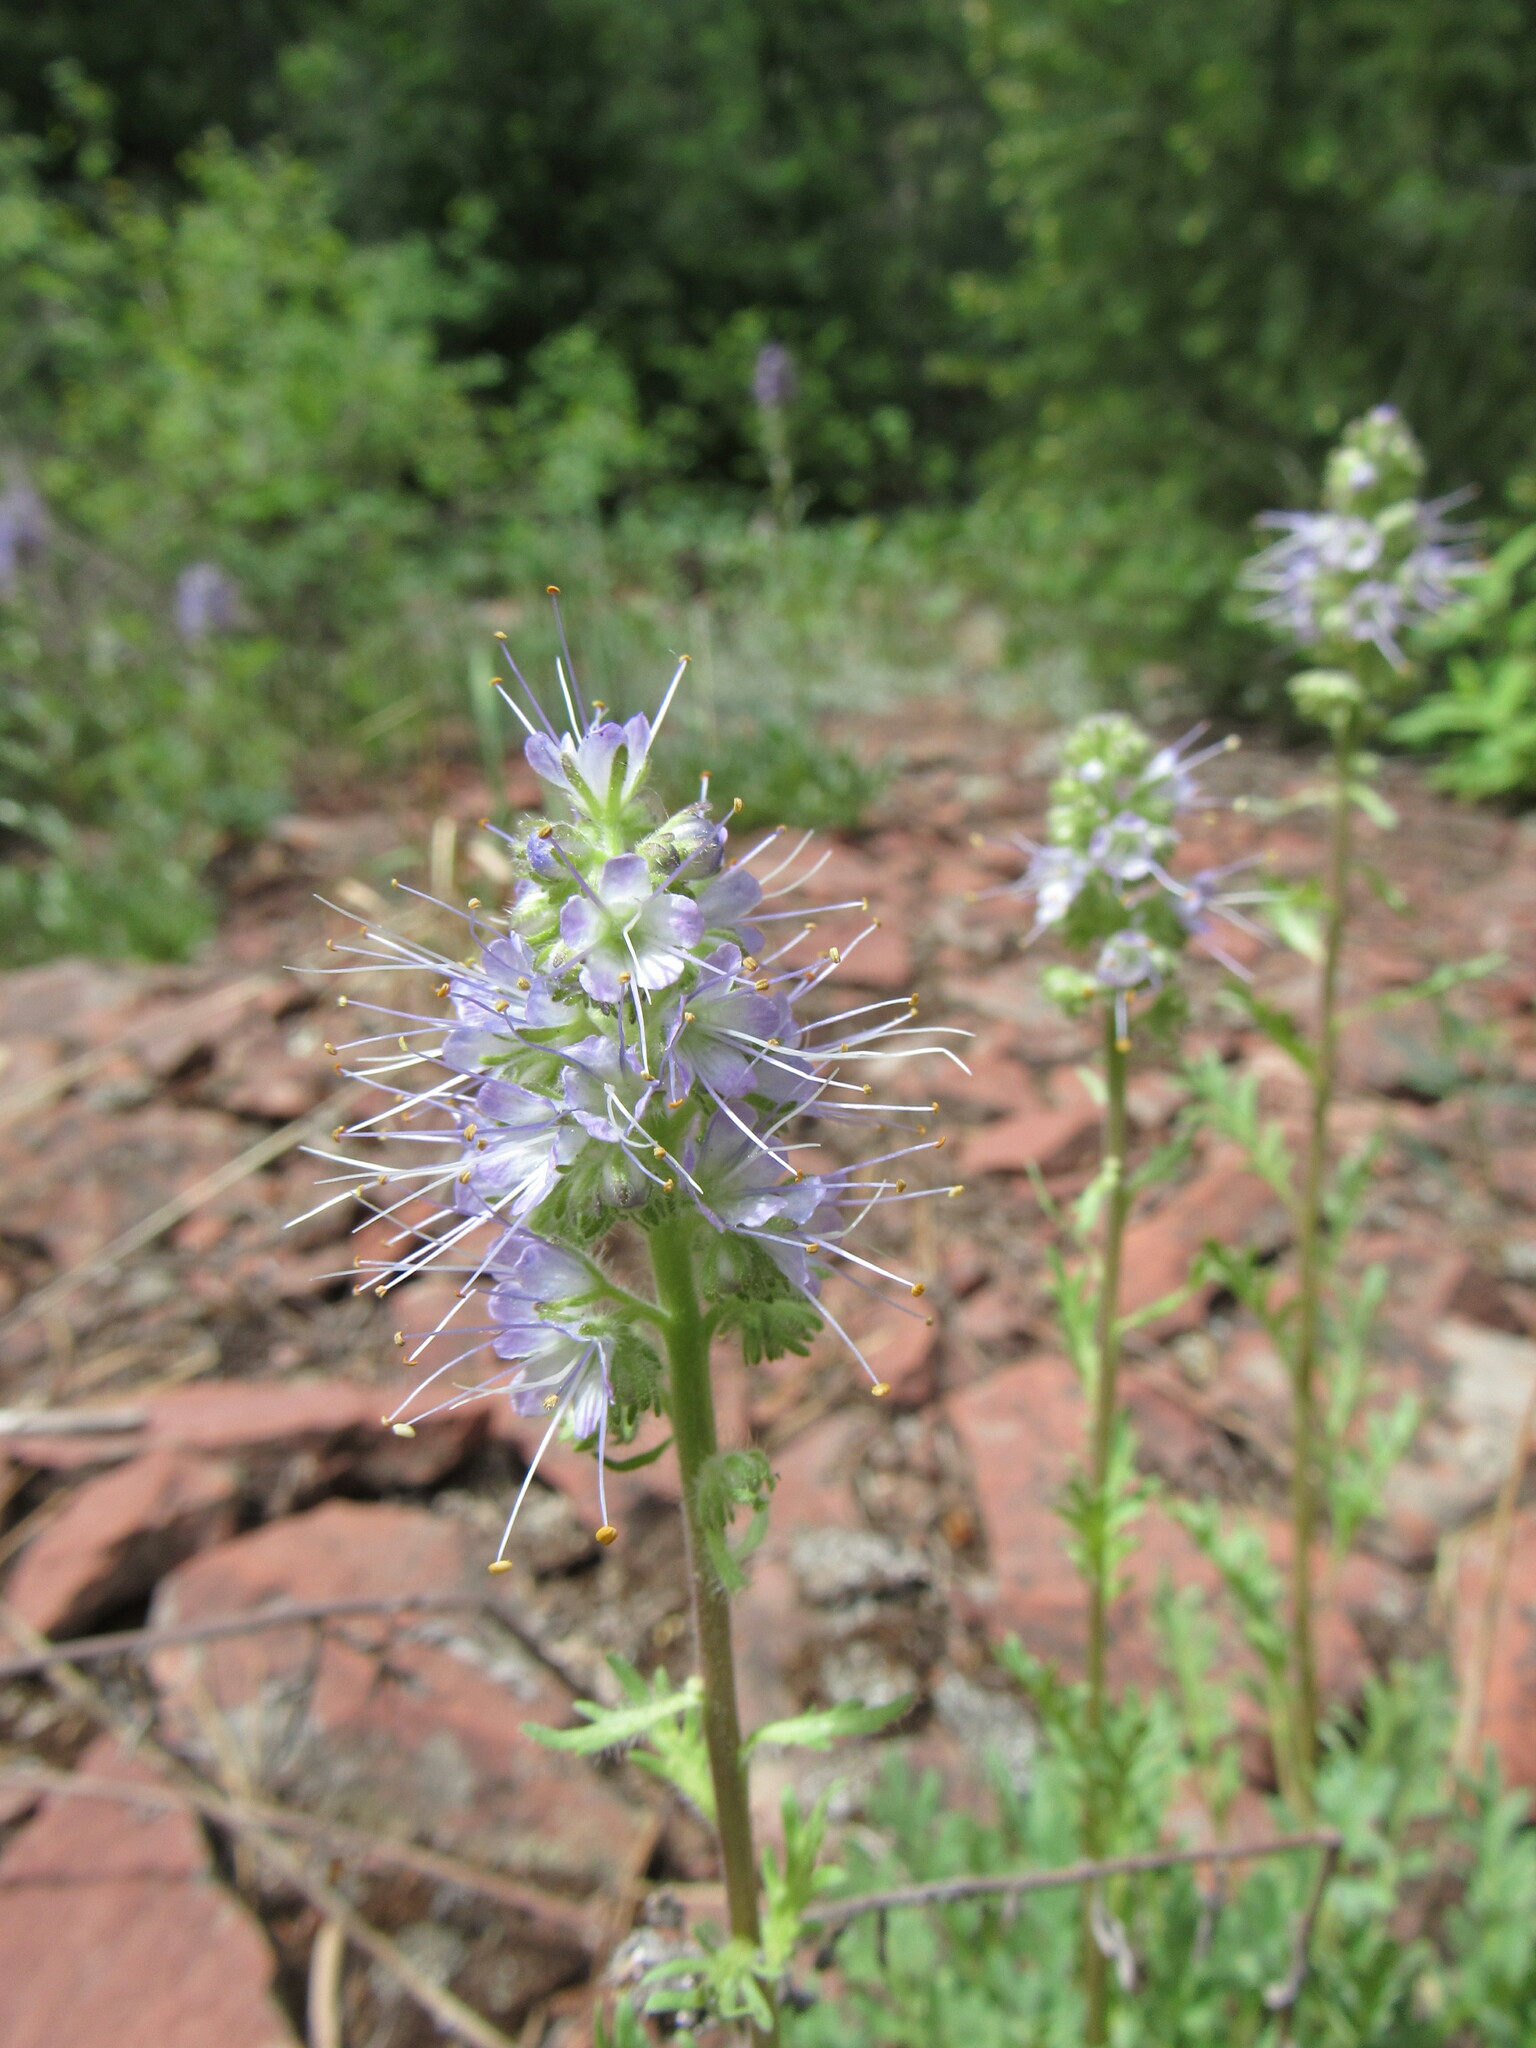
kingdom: Plantae
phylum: Tracheophyta
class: Magnoliopsida
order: Boraginales
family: Hydrophyllaceae
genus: Phacelia
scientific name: Phacelia sericea
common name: Silky phacelia
